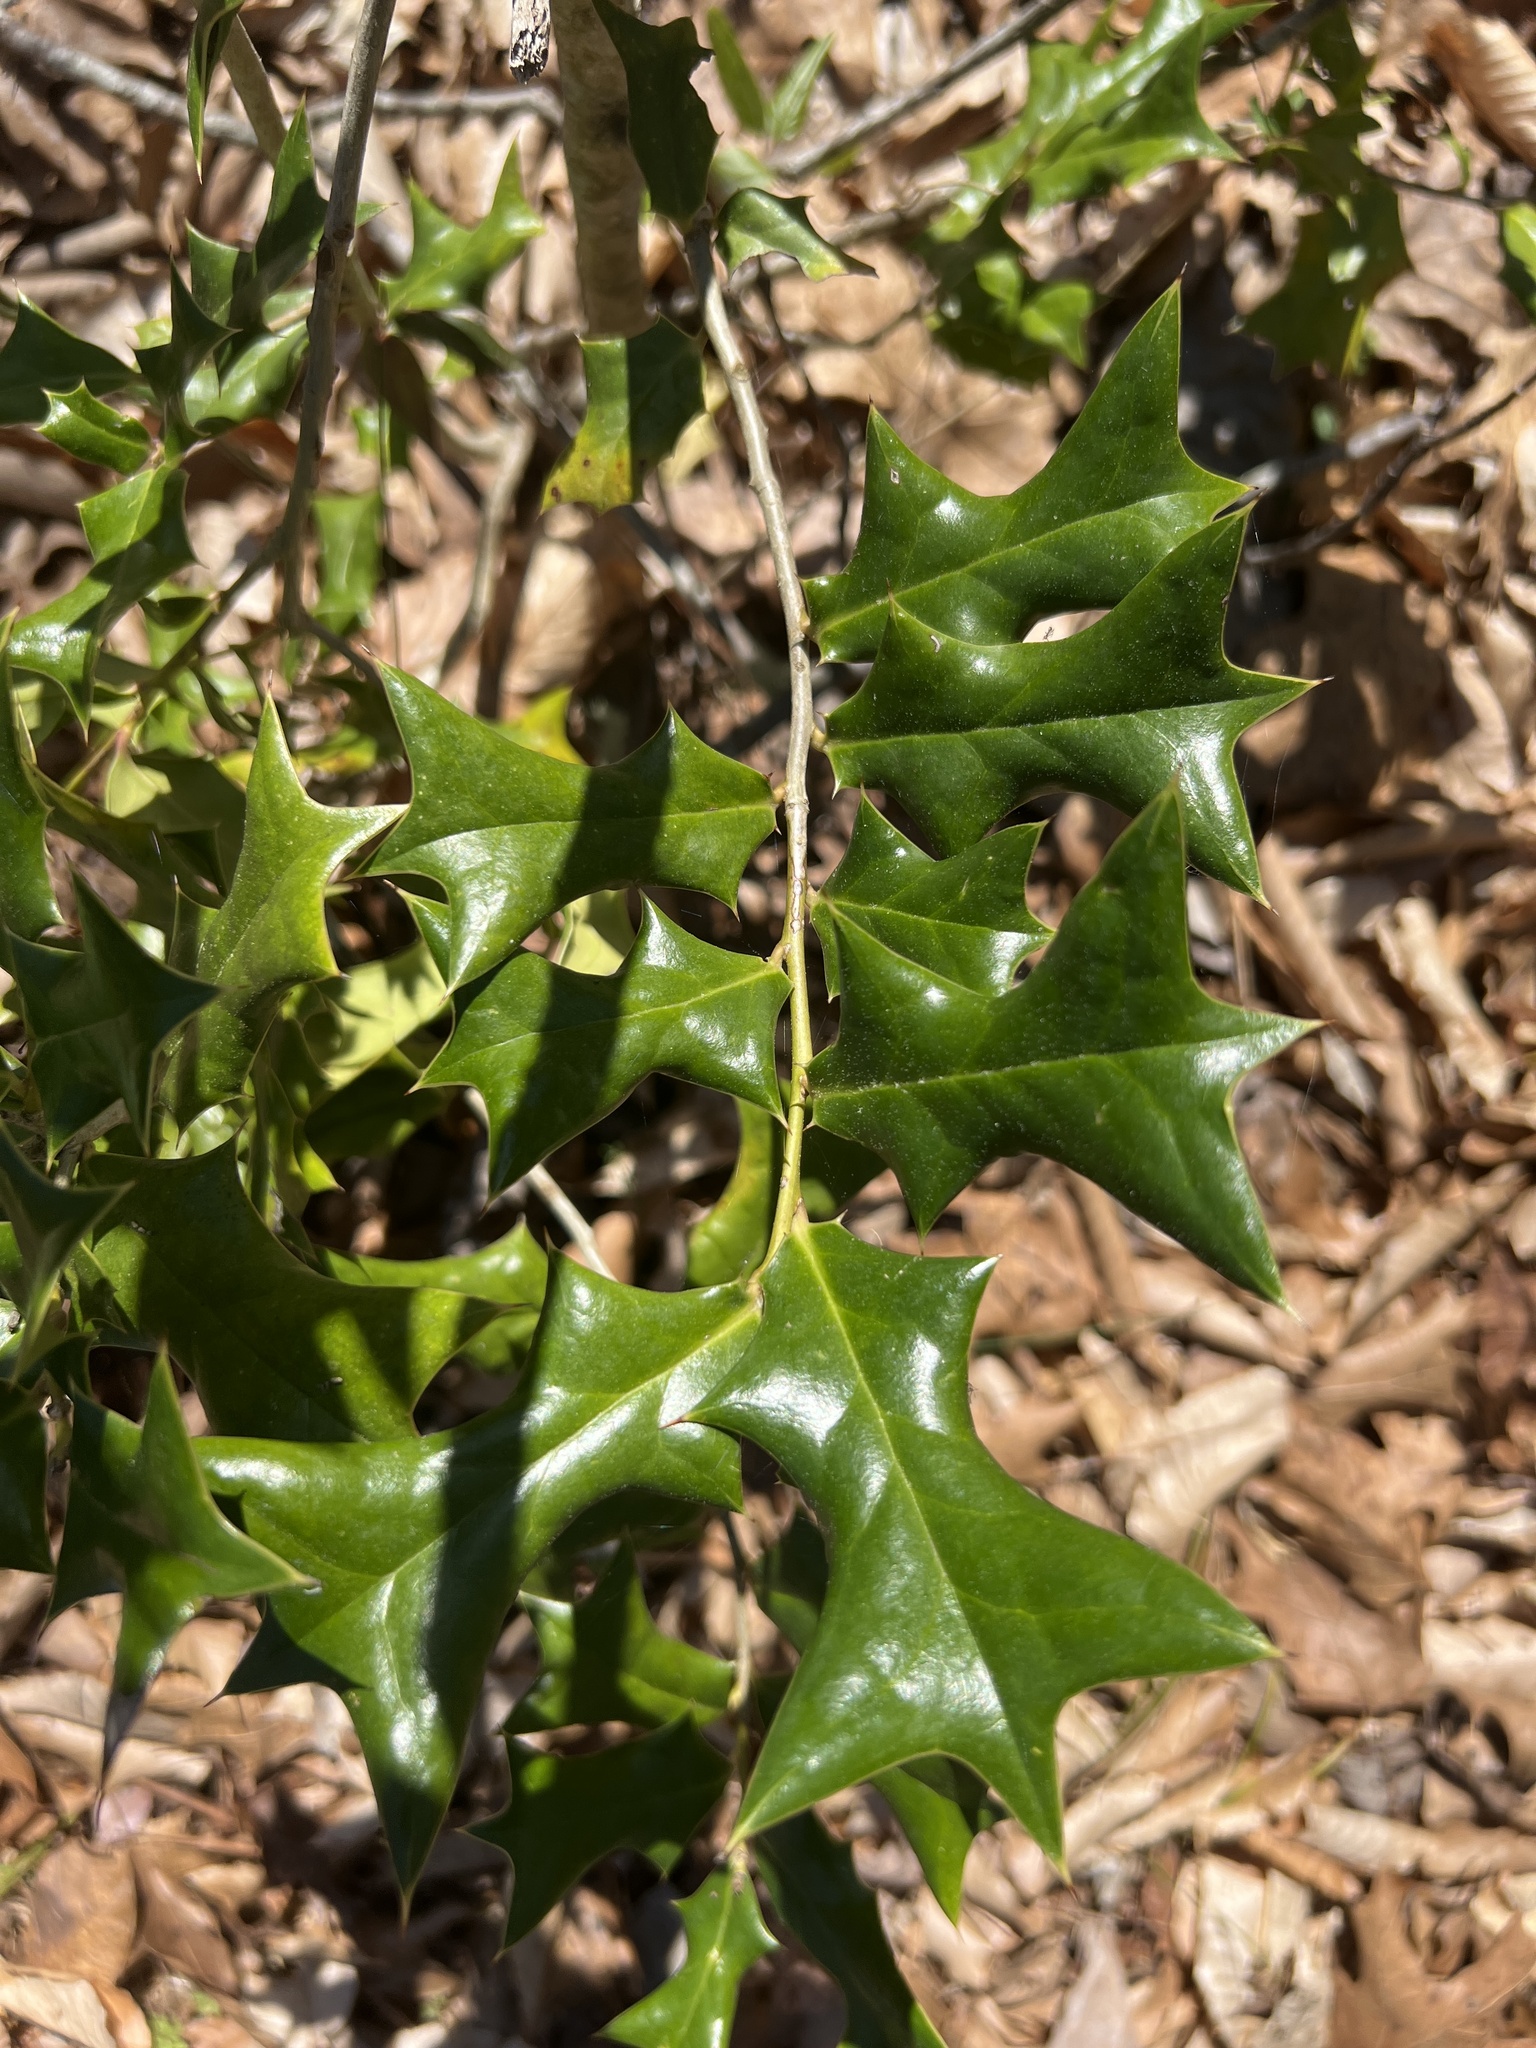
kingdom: Plantae
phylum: Tracheophyta
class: Magnoliopsida
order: Aquifoliales
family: Aquifoliaceae
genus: Ilex
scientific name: Ilex cornuta
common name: Chinese holly
